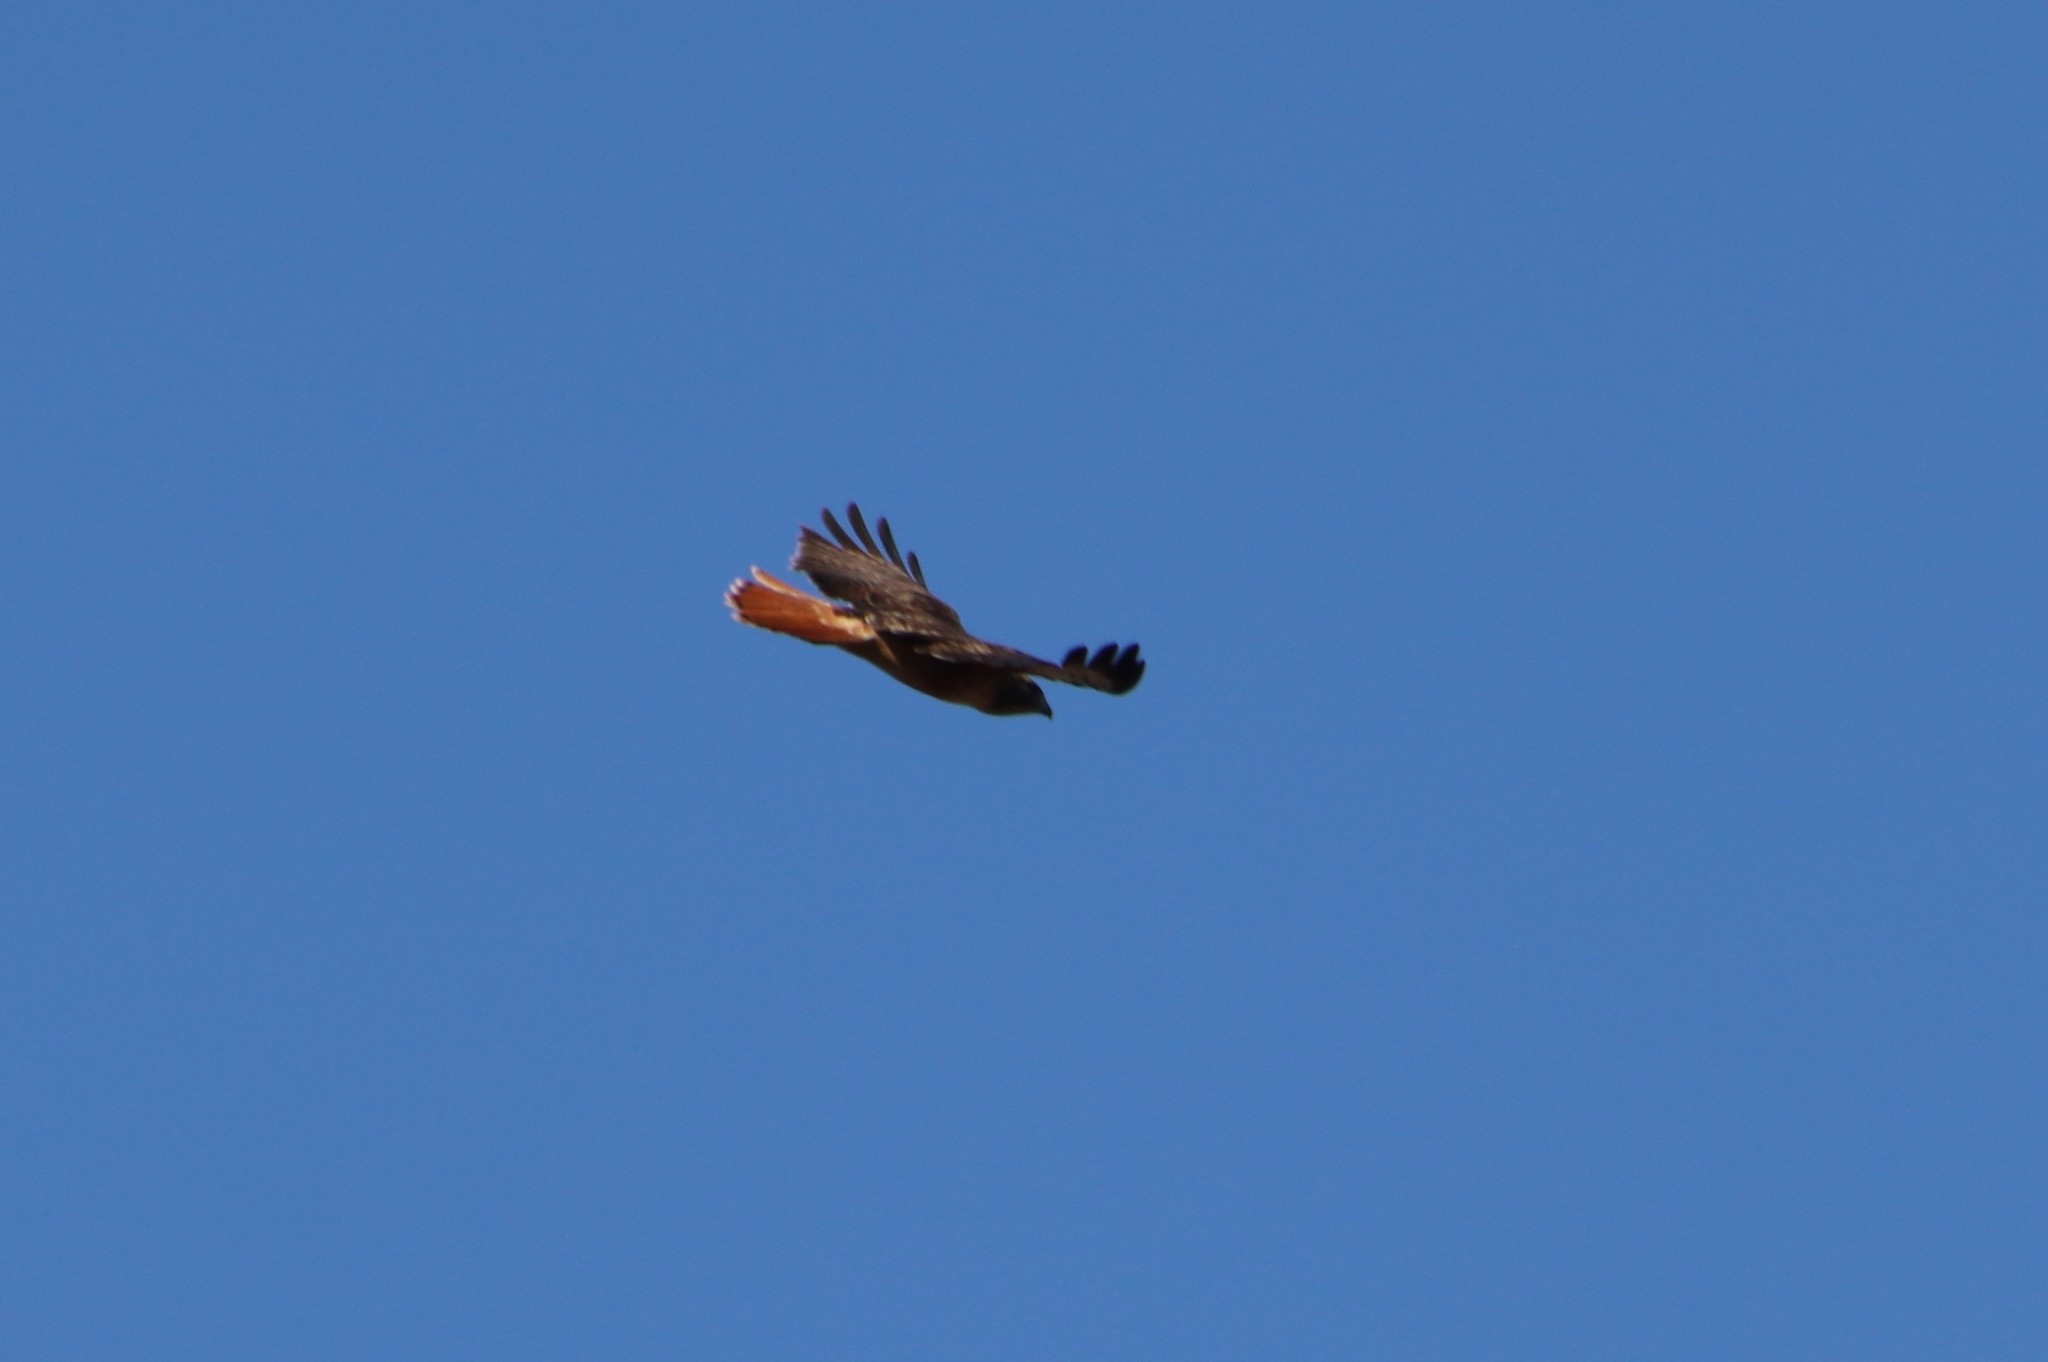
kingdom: Animalia
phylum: Chordata
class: Aves
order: Accipitriformes
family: Accipitridae
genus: Buteo
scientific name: Buteo jamaicensis
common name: Red-tailed hawk
